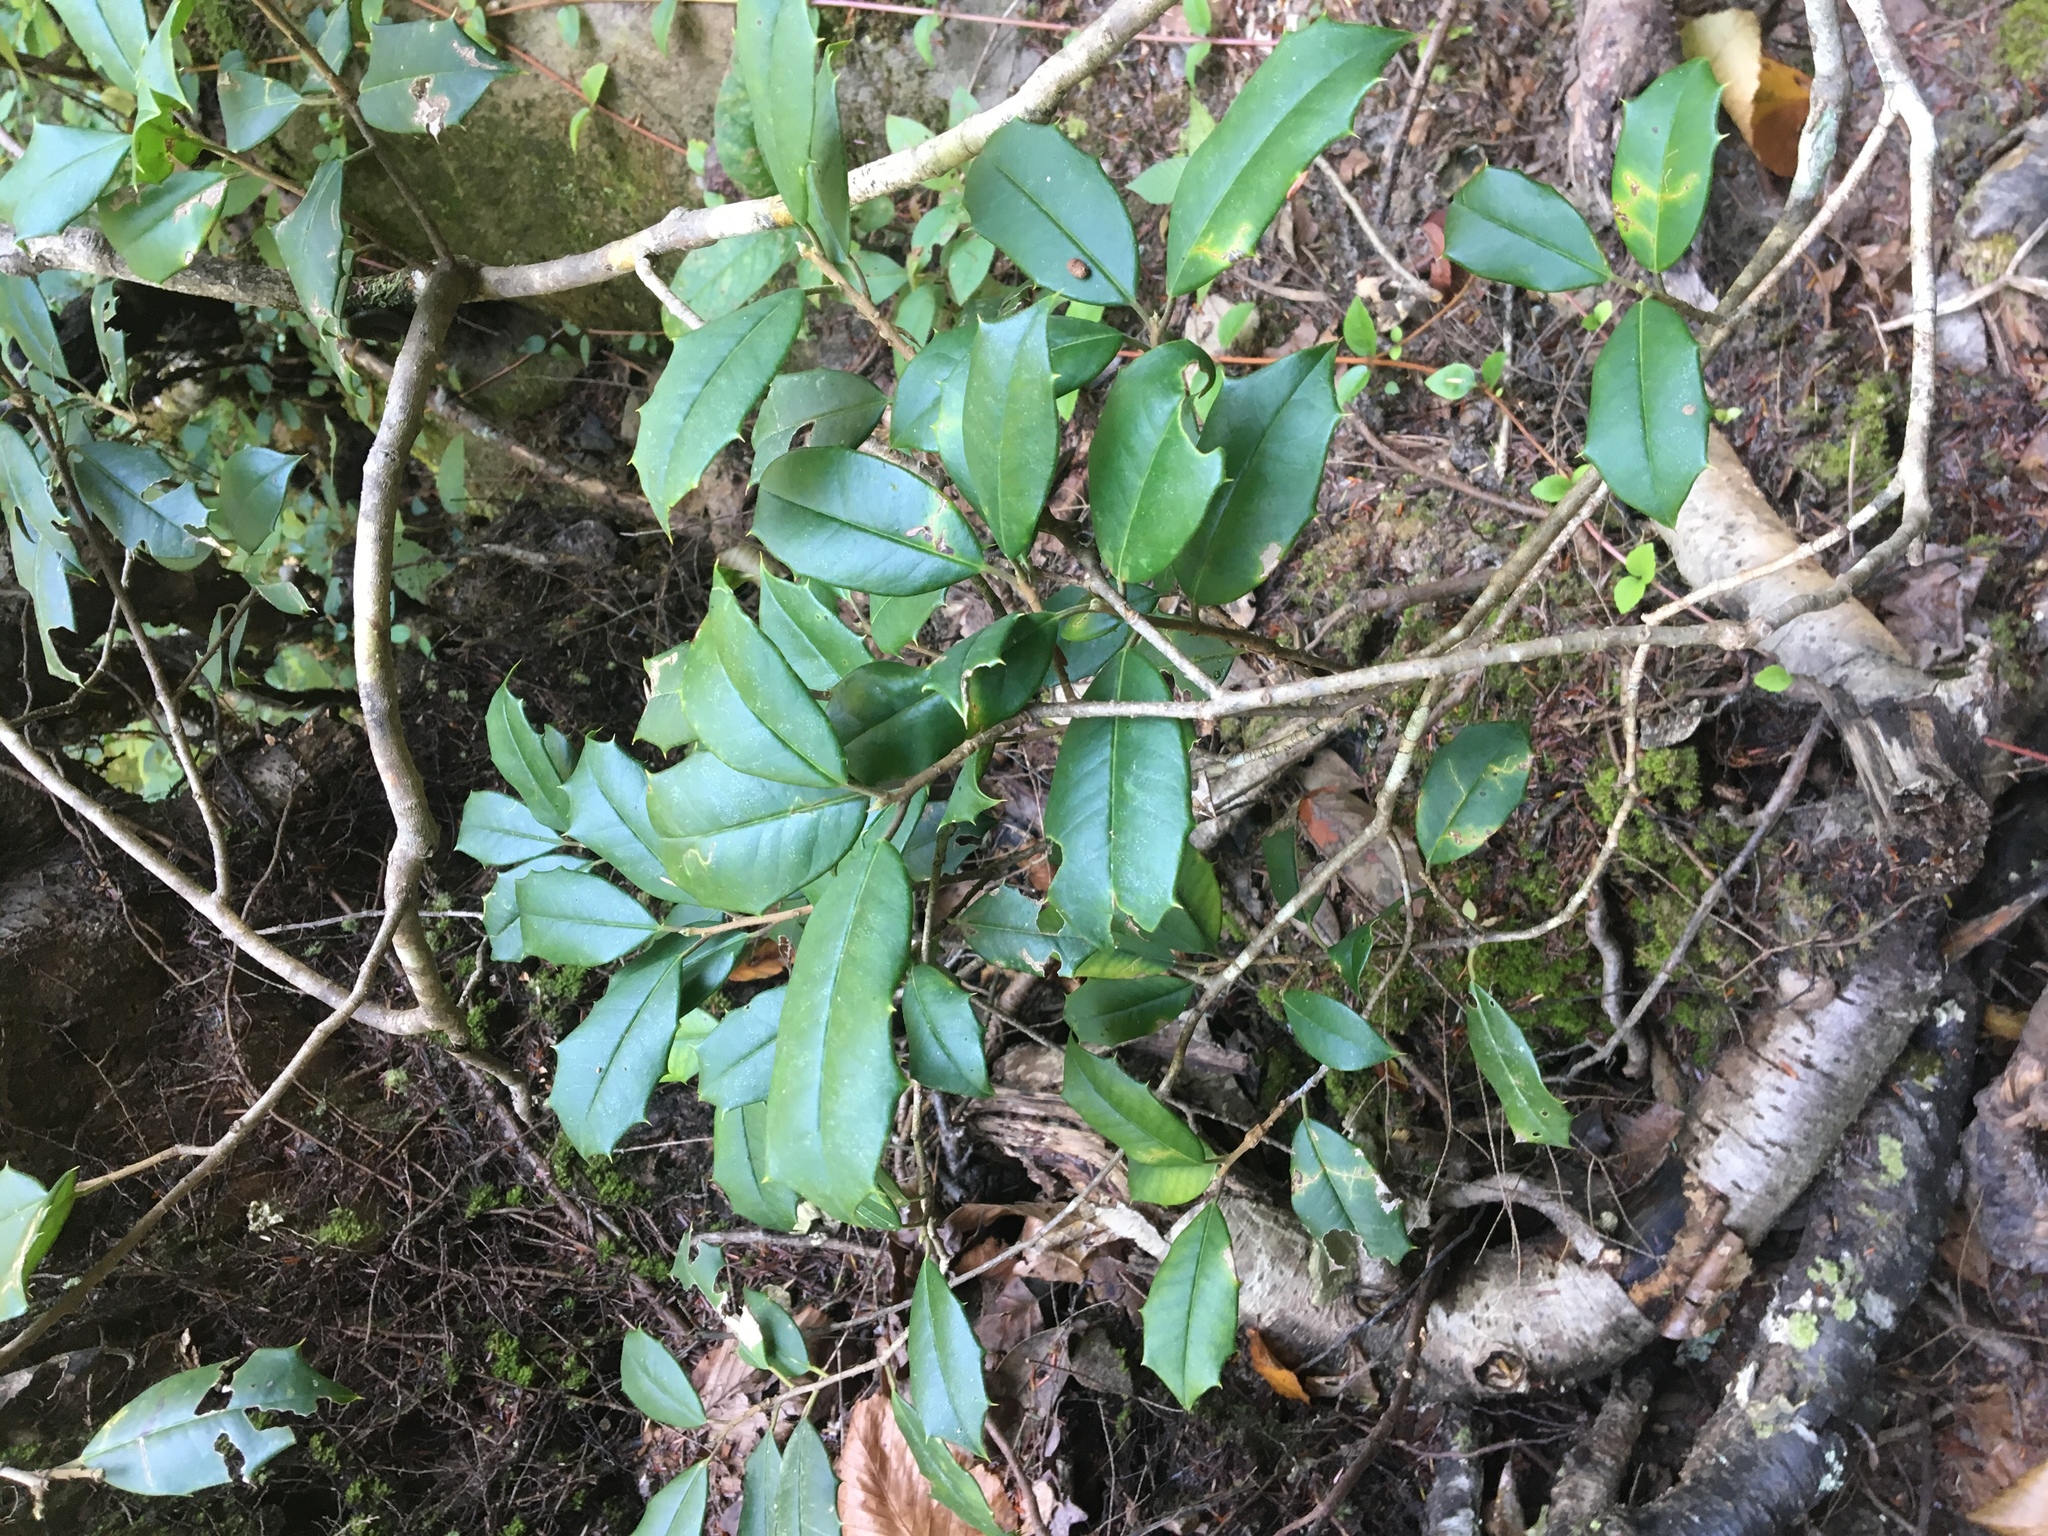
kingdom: Plantae
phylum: Tracheophyta
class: Magnoliopsida
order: Aquifoliales
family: Aquifoliaceae
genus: Ilex
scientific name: Ilex opaca
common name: American holly
